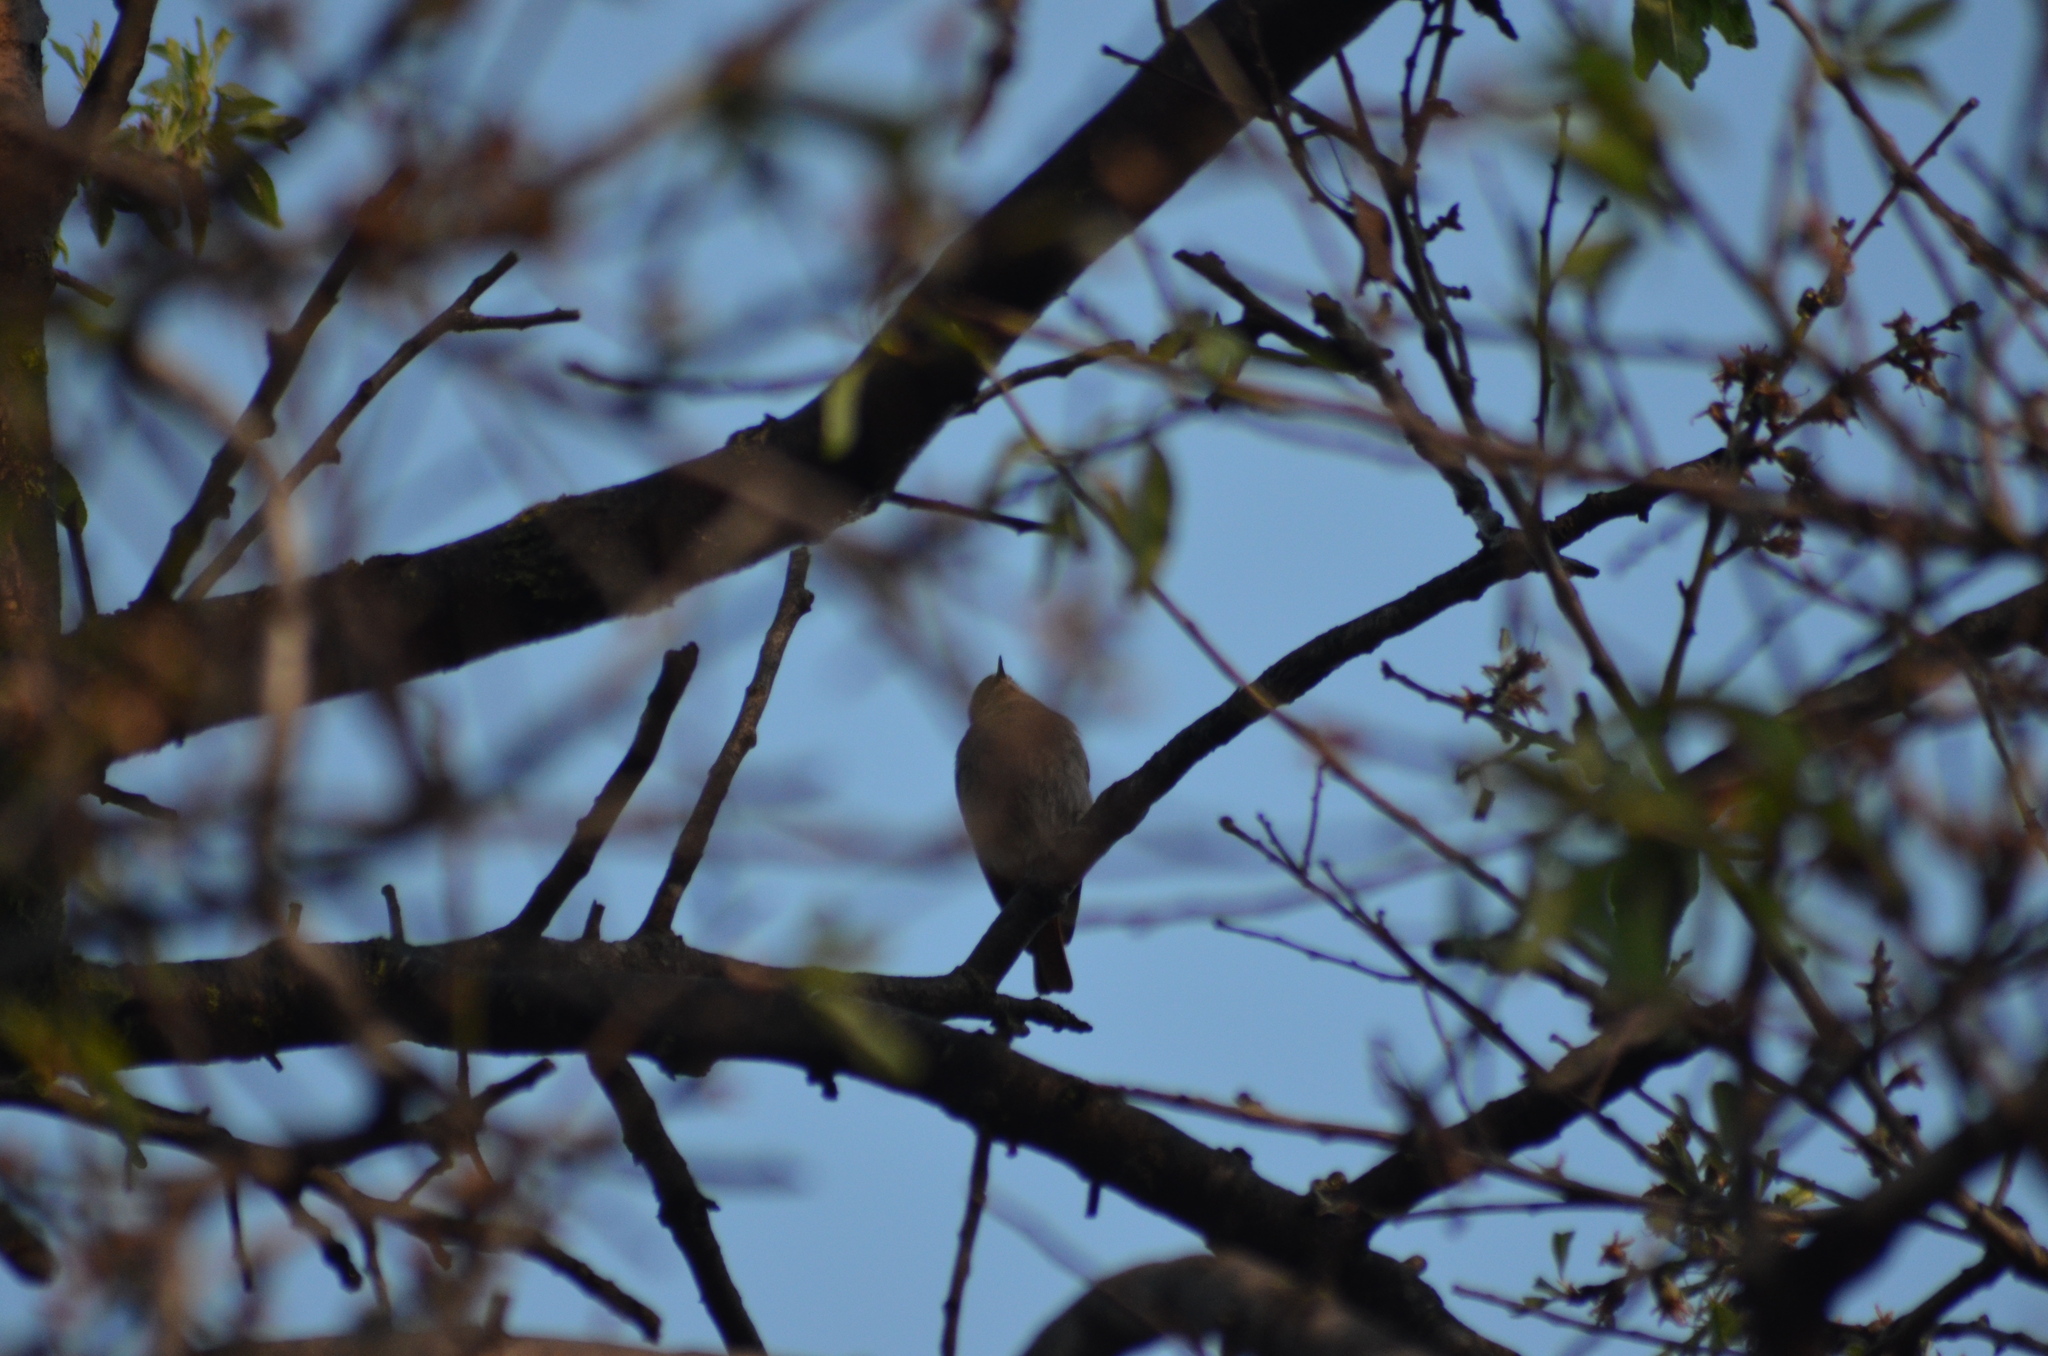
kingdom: Animalia
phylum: Chordata
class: Aves
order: Passeriformes
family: Muscicapidae
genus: Phoenicurus
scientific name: Phoenicurus ochruros
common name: Black redstart
